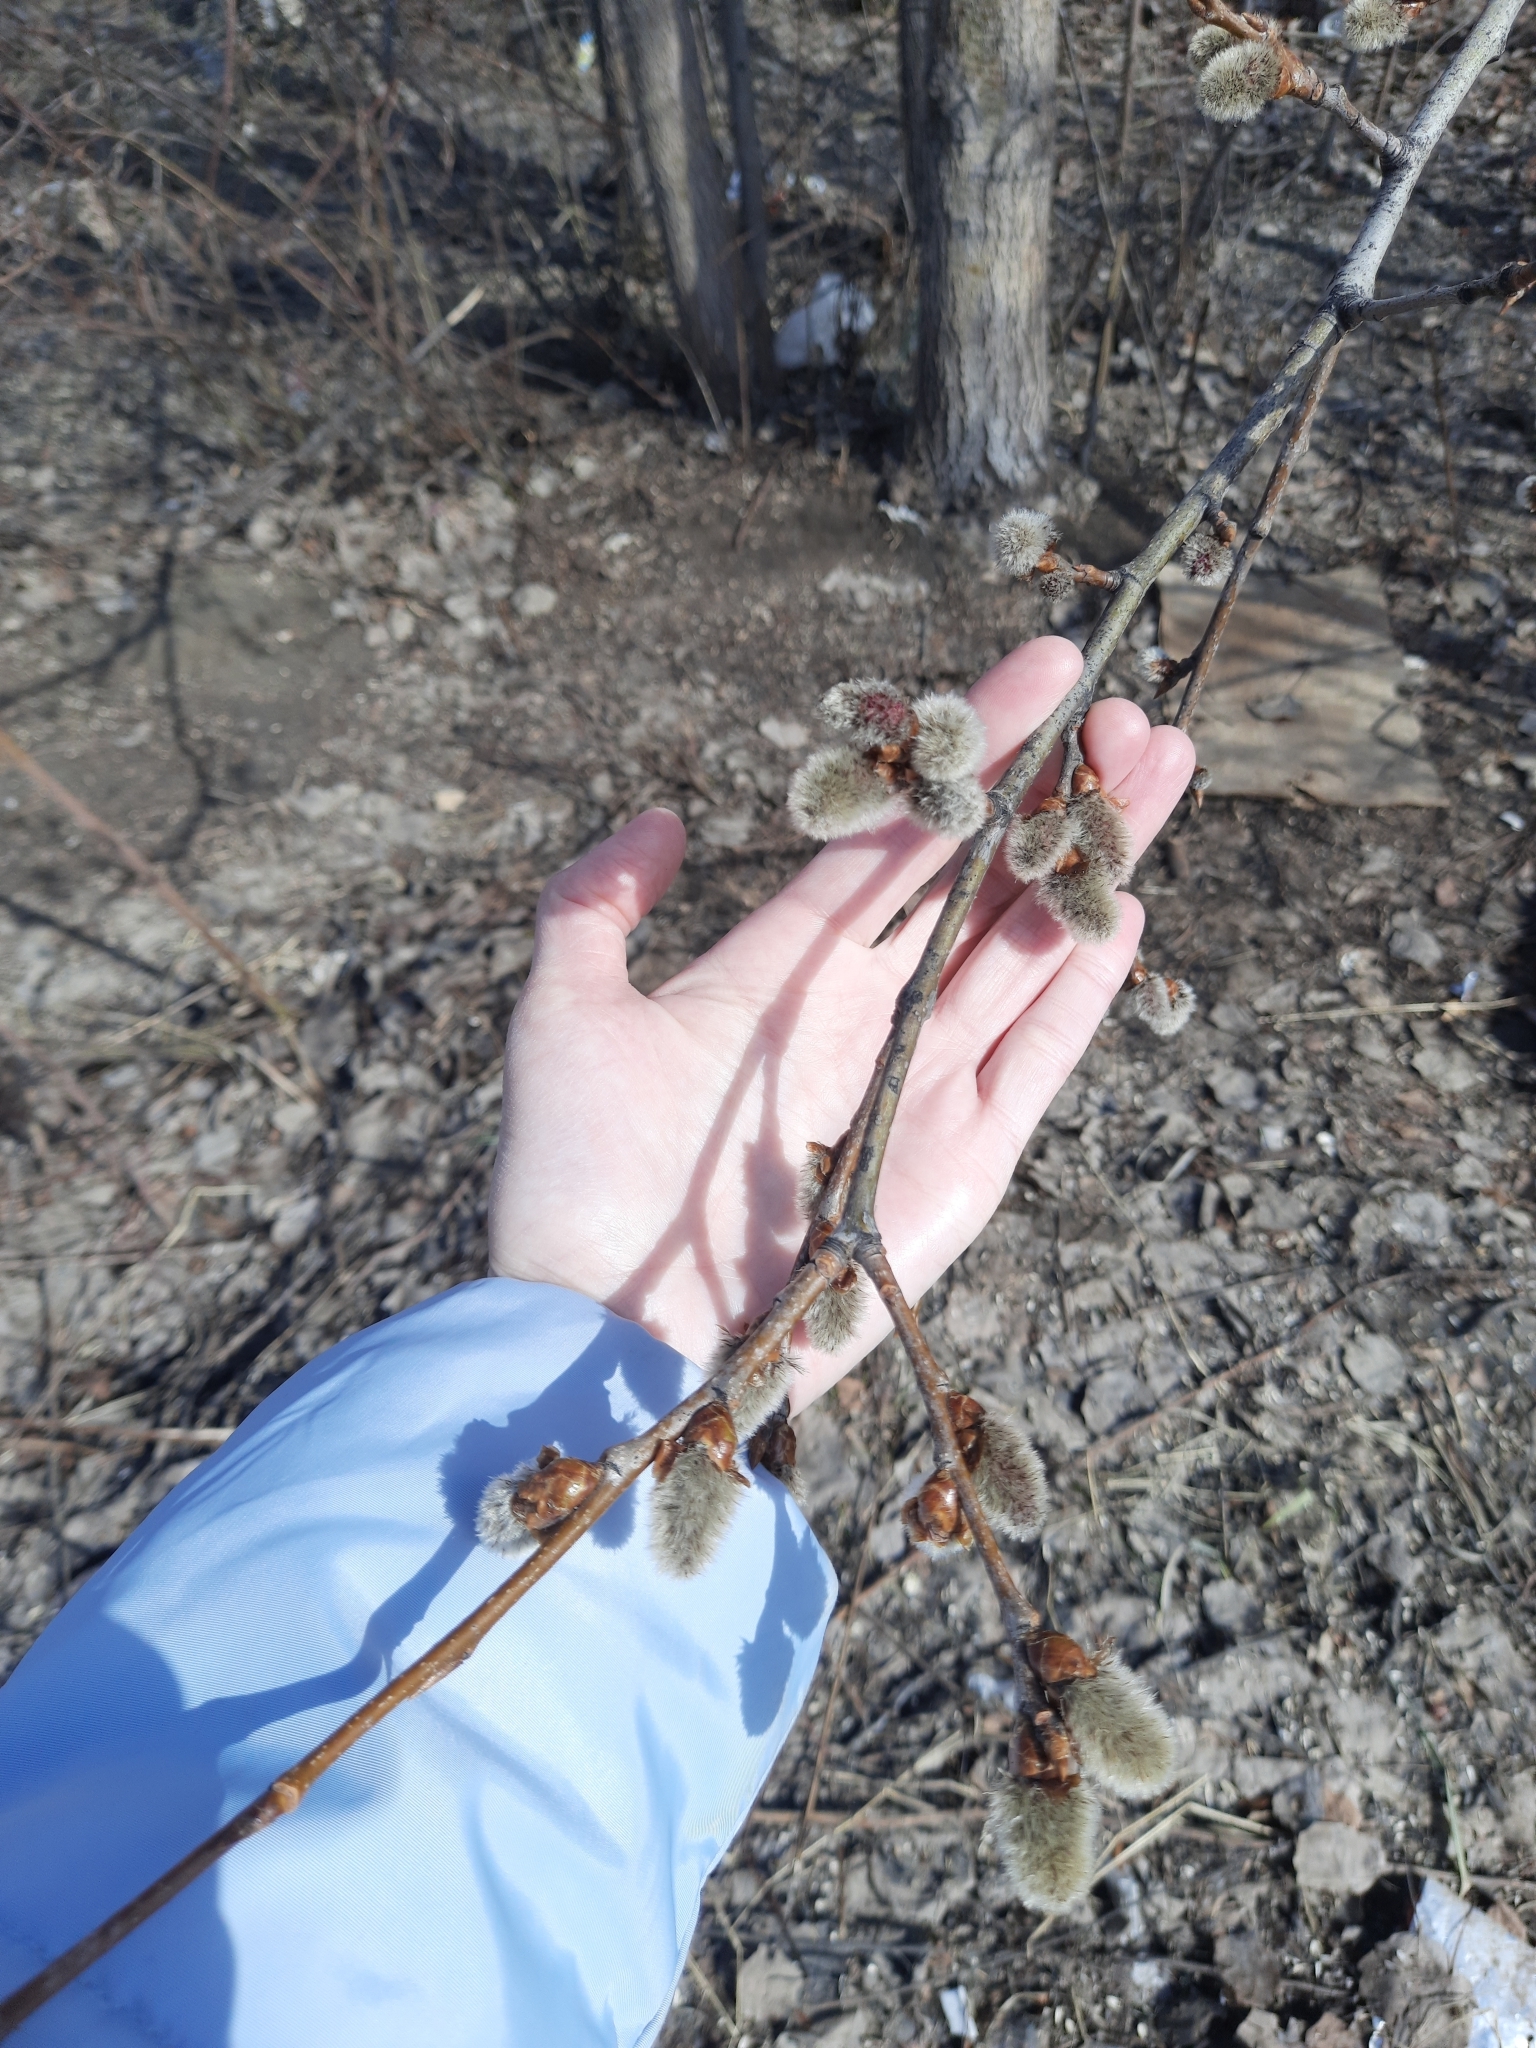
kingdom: Plantae
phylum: Tracheophyta
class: Magnoliopsida
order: Malpighiales
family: Salicaceae
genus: Populus
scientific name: Populus tremula
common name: European aspen
